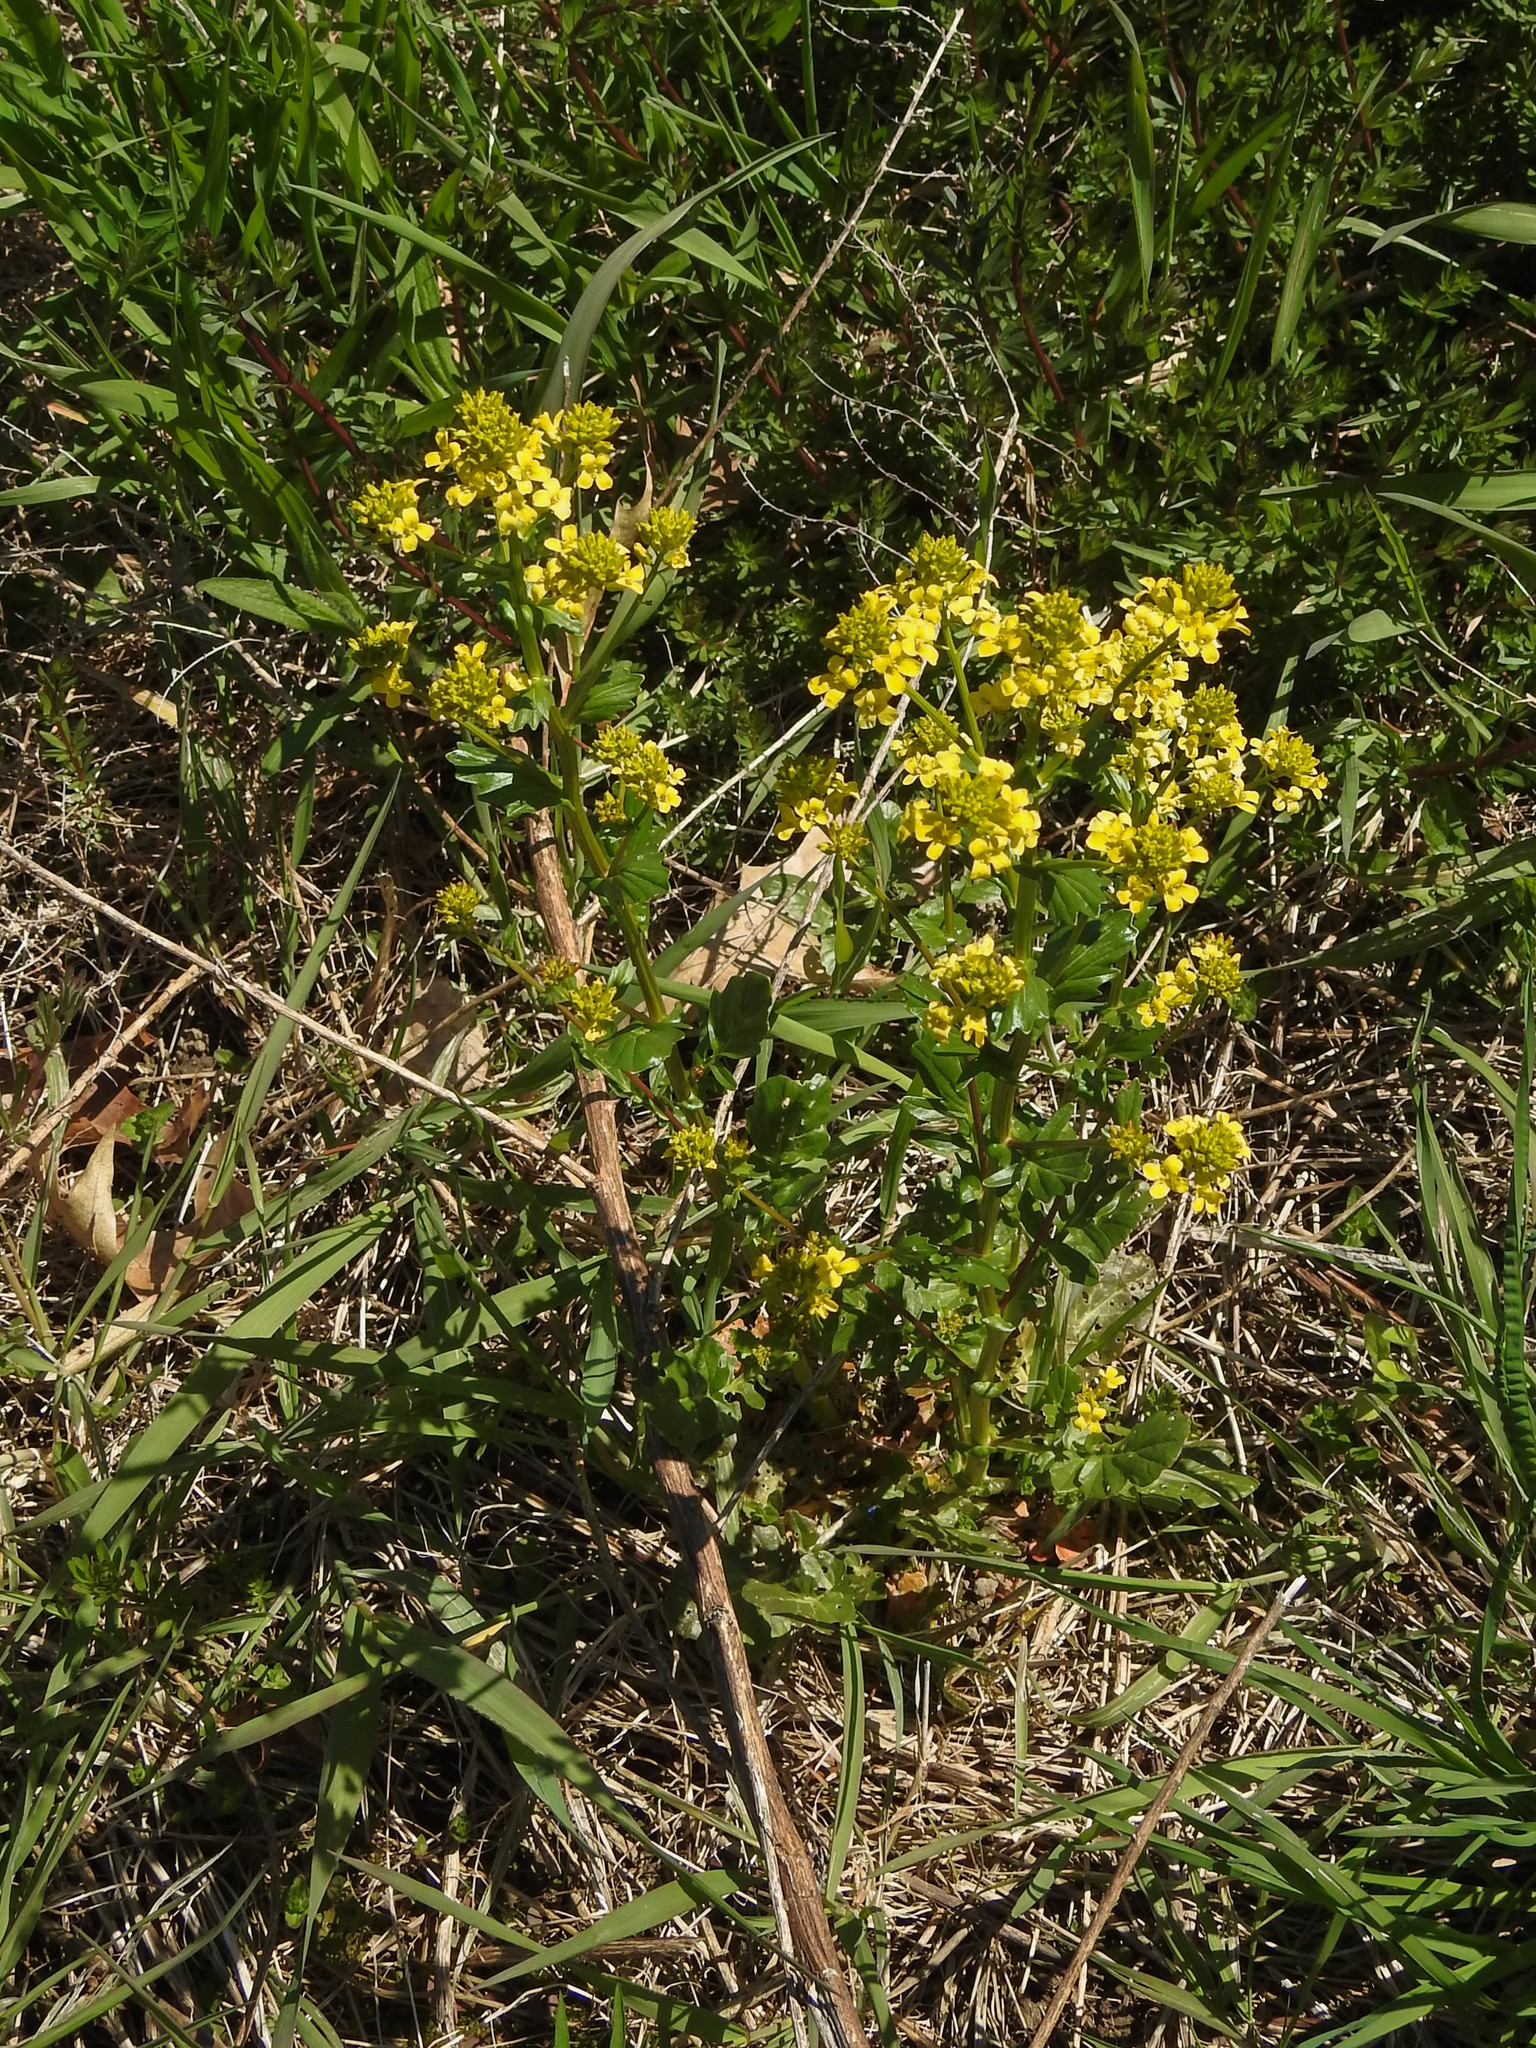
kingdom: Plantae
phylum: Tracheophyta
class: Magnoliopsida
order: Brassicales
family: Brassicaceae
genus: Barbarea
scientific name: Barbarea vulgaris
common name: Cressy-greens
